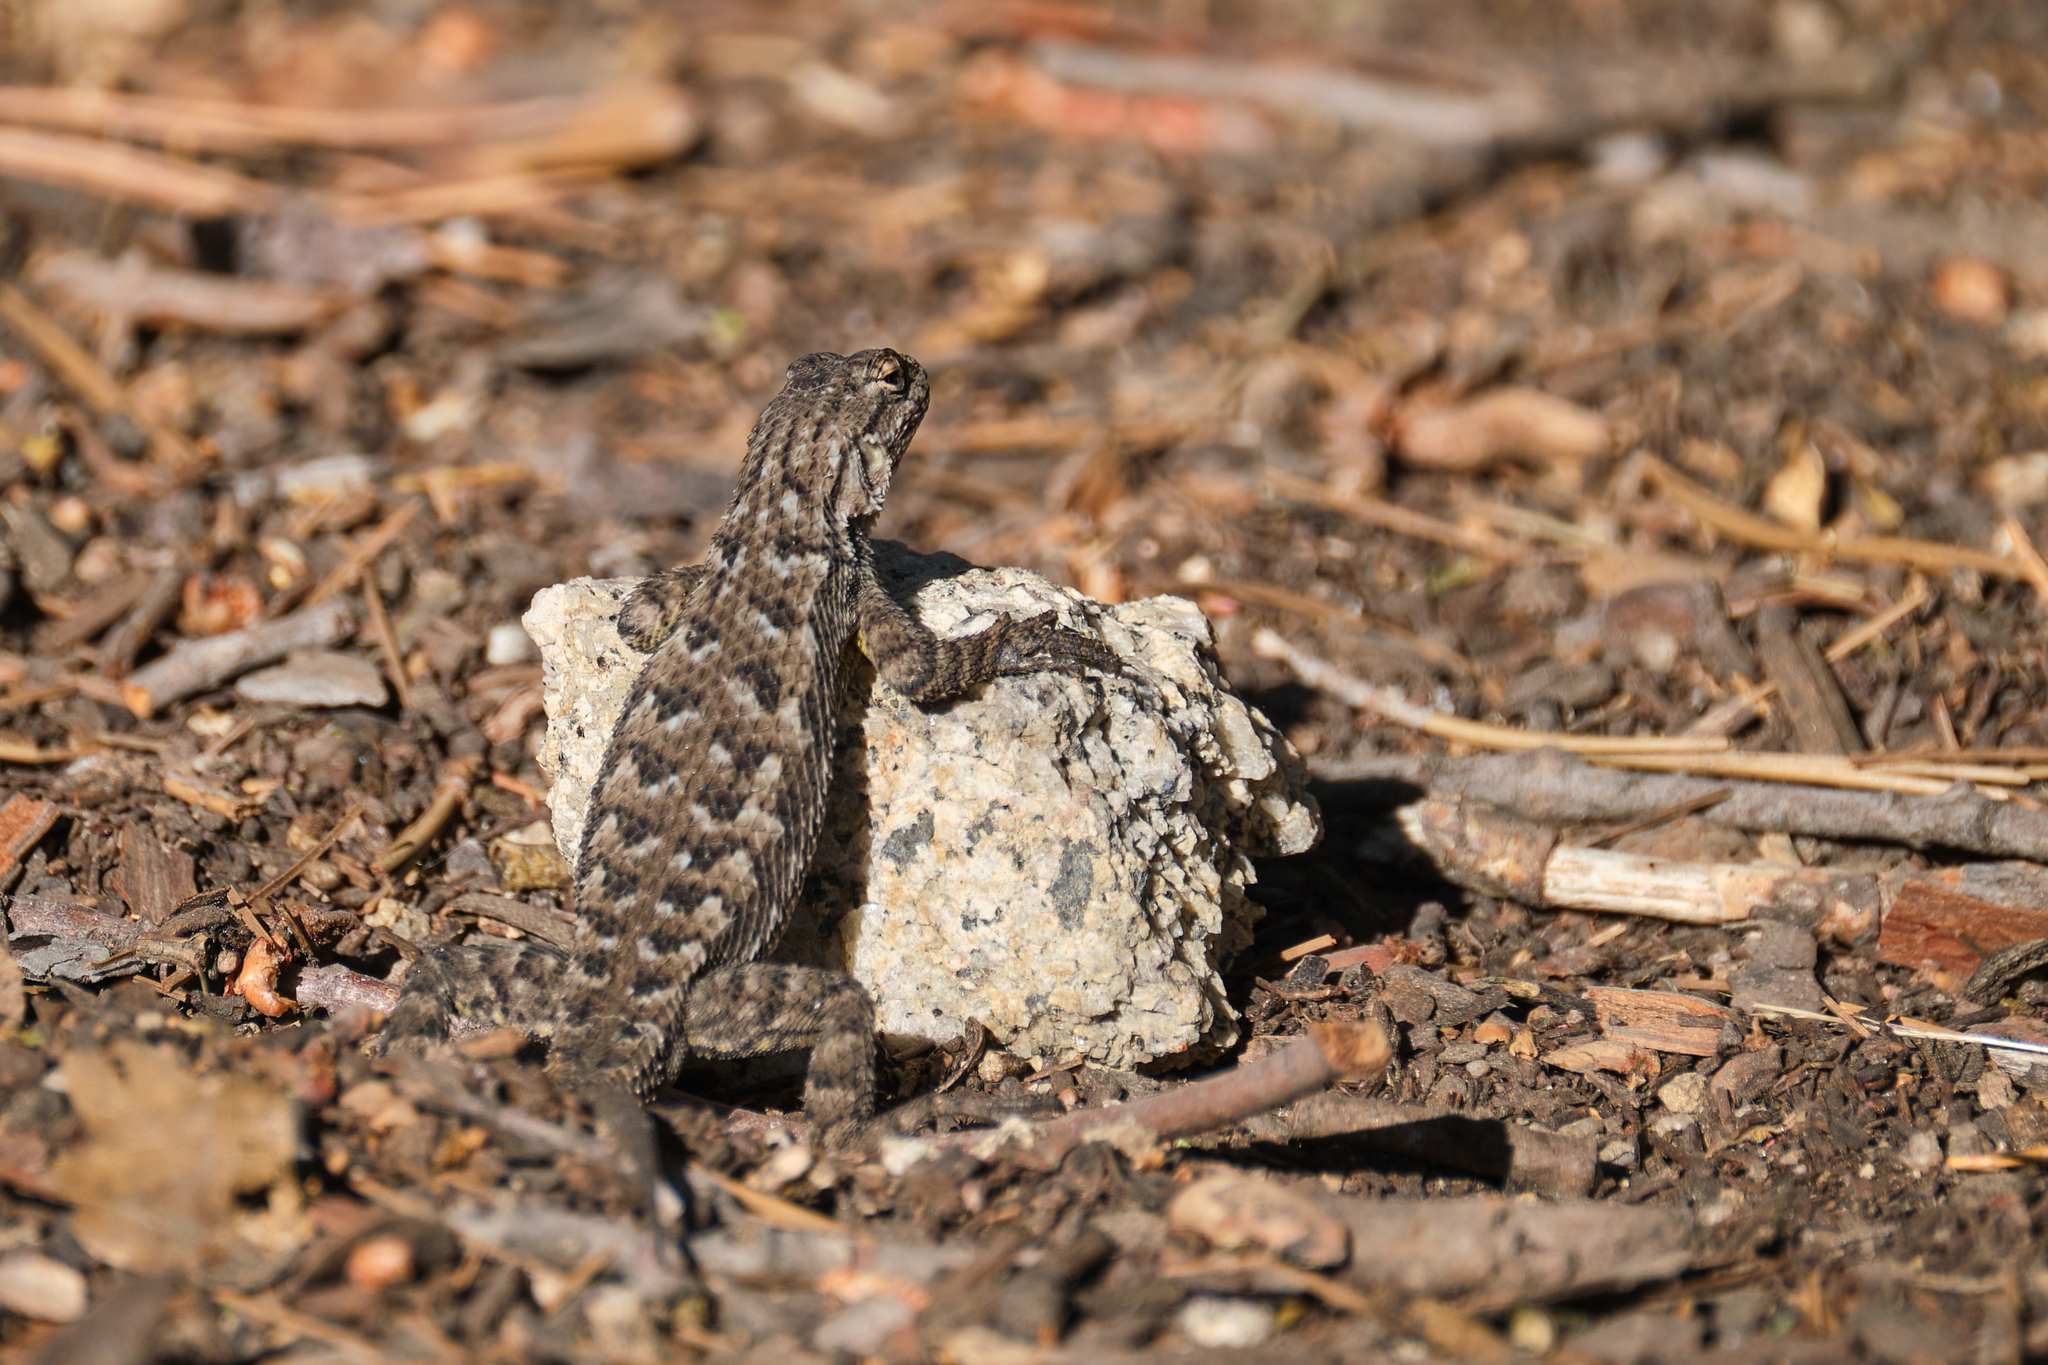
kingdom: Animalia
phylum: Chordata
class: Squamata
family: Phrynosomatidae
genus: Sceloporus
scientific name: Sceloporus occidentalis
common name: Western fence lizard
